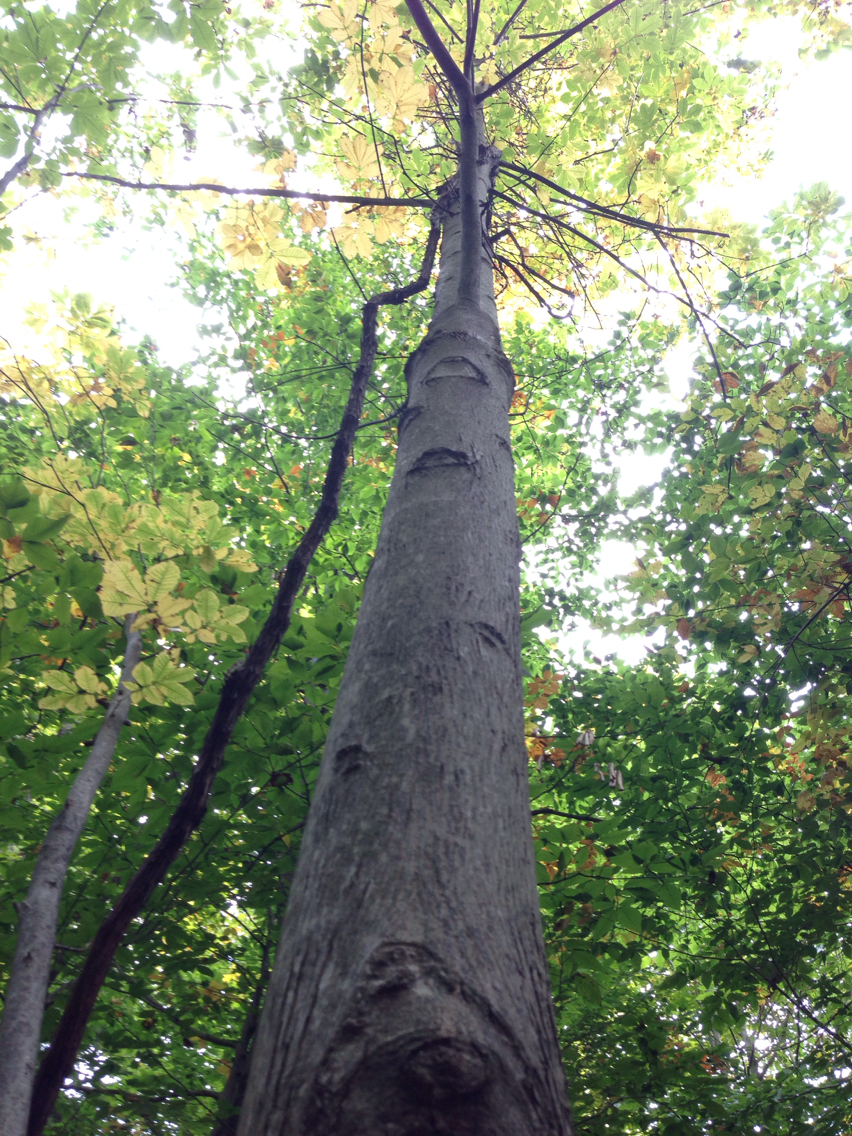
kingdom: Plantae
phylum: Tracheophyta
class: Magnoliopsida
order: Fagales
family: Juglandaceae
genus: Carya
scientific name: Carya cordiformis
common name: Bitternut hickory
